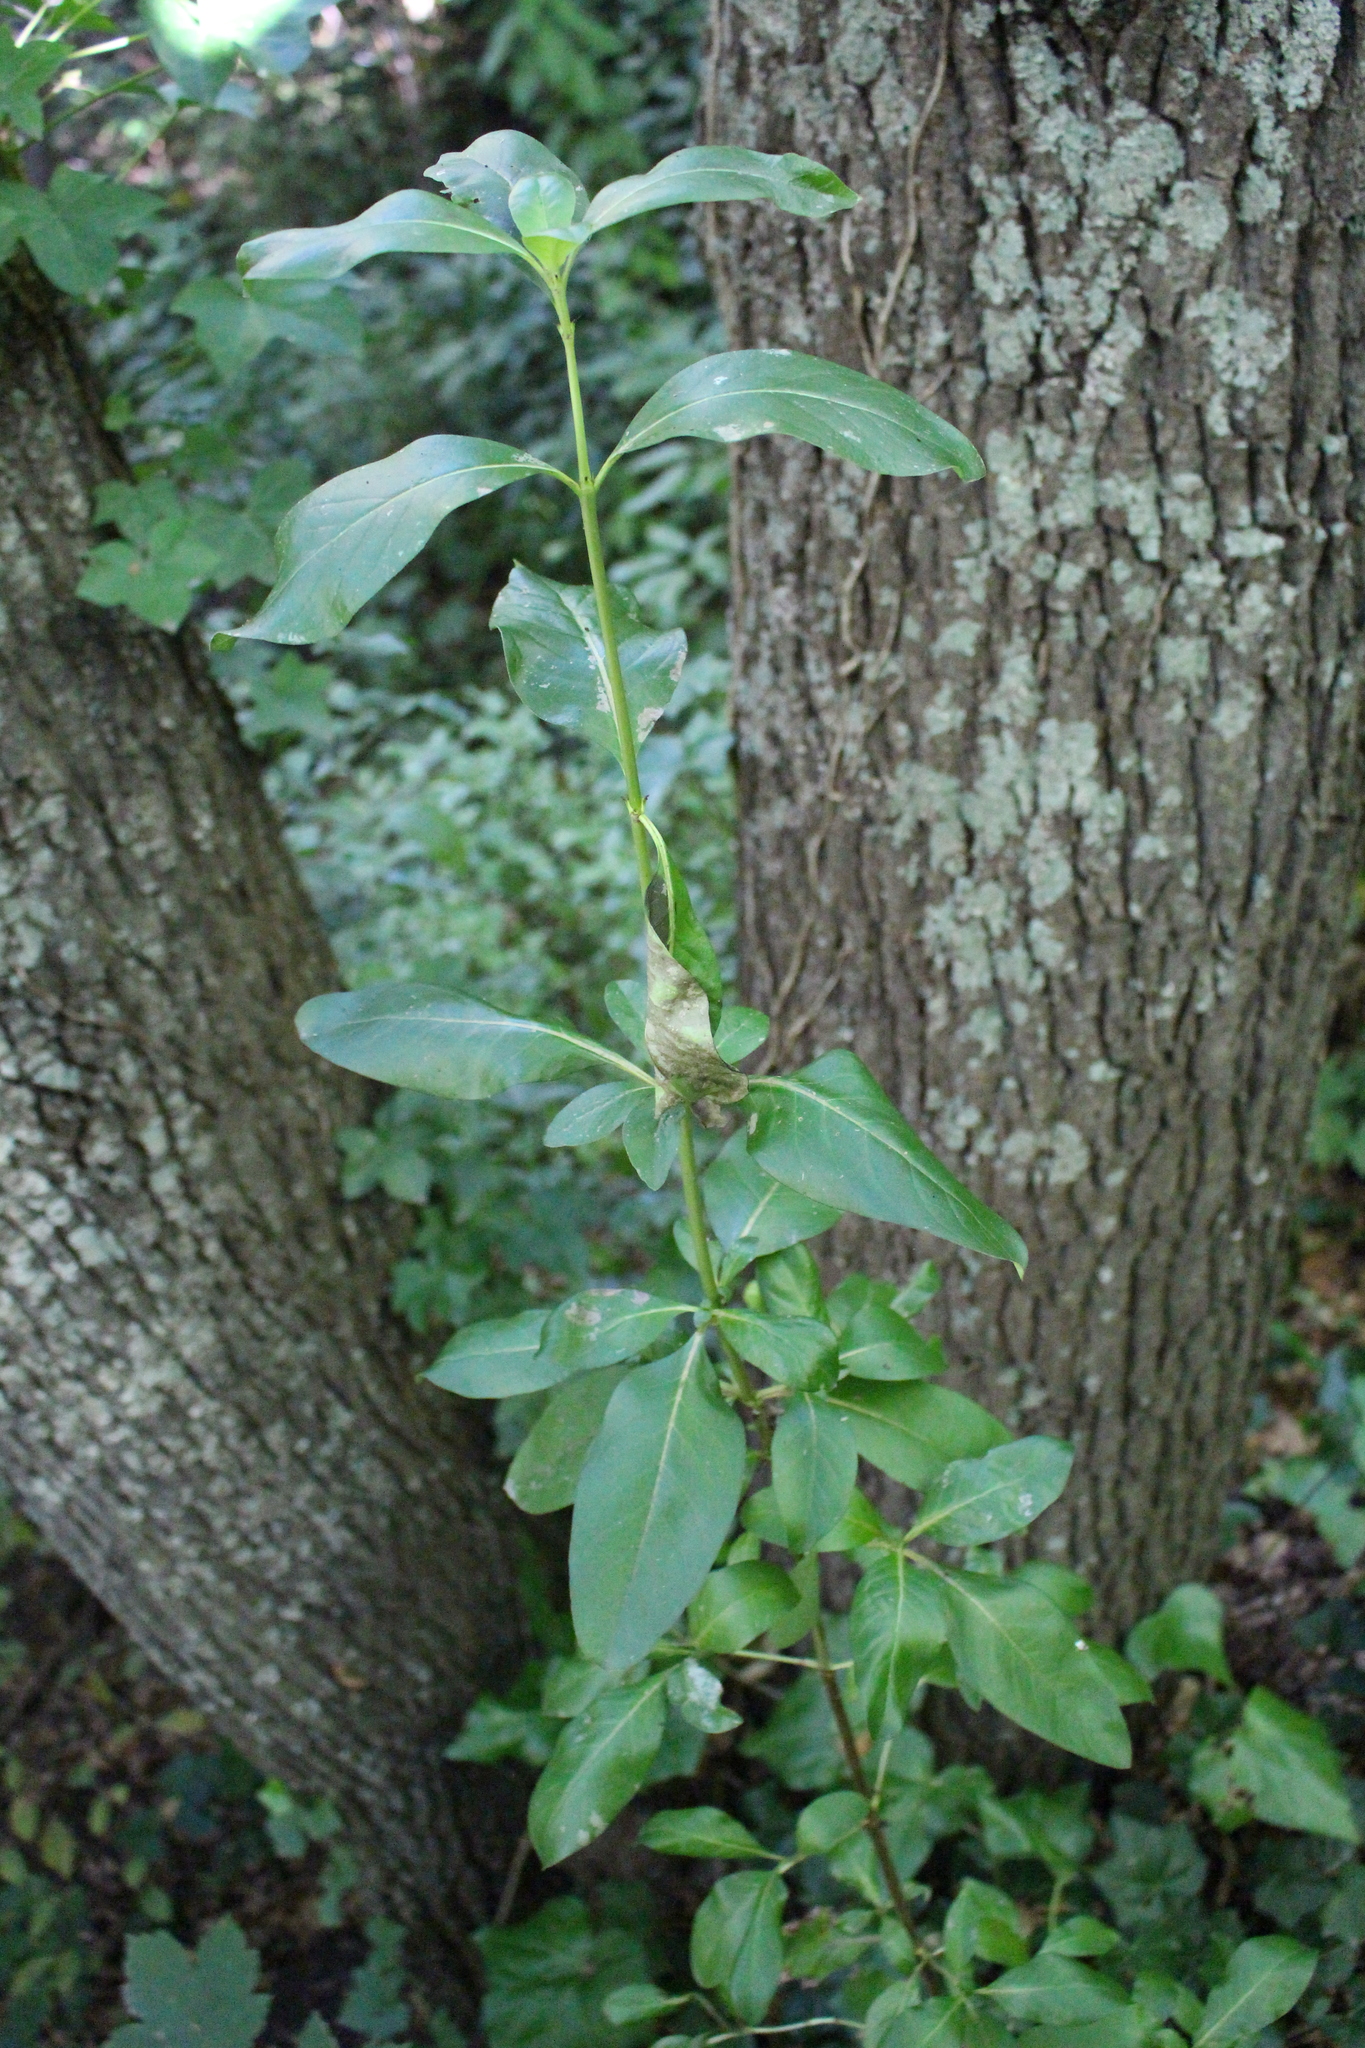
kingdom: Plantae
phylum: Tracheophyta
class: Magnoliopsida
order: Gentianales
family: Rubiaceae
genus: Coprosma
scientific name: Coprosma robusta
